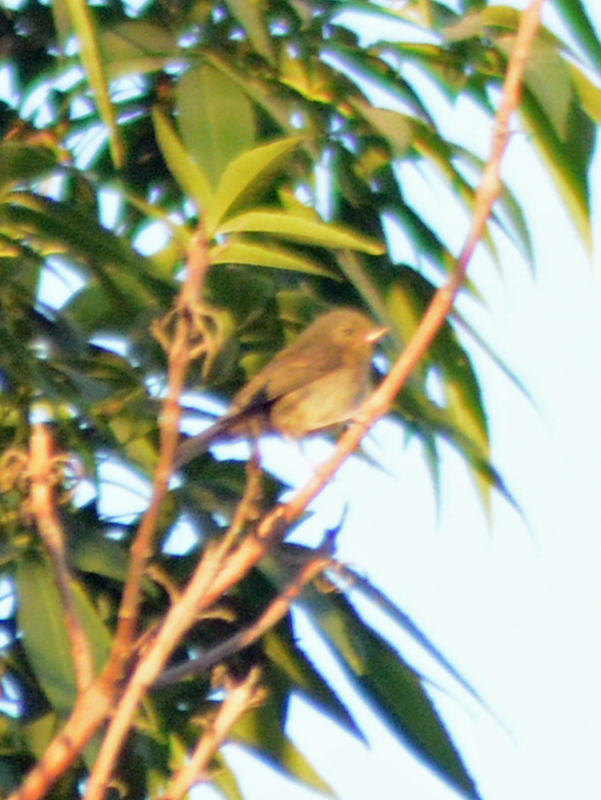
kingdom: Animalia
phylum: Chordata
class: Aves
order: Passeriformes
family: Thraupidae
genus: Diglossa
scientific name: Diglossa baritula
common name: Cinnamon-bellied flowerpiercer
